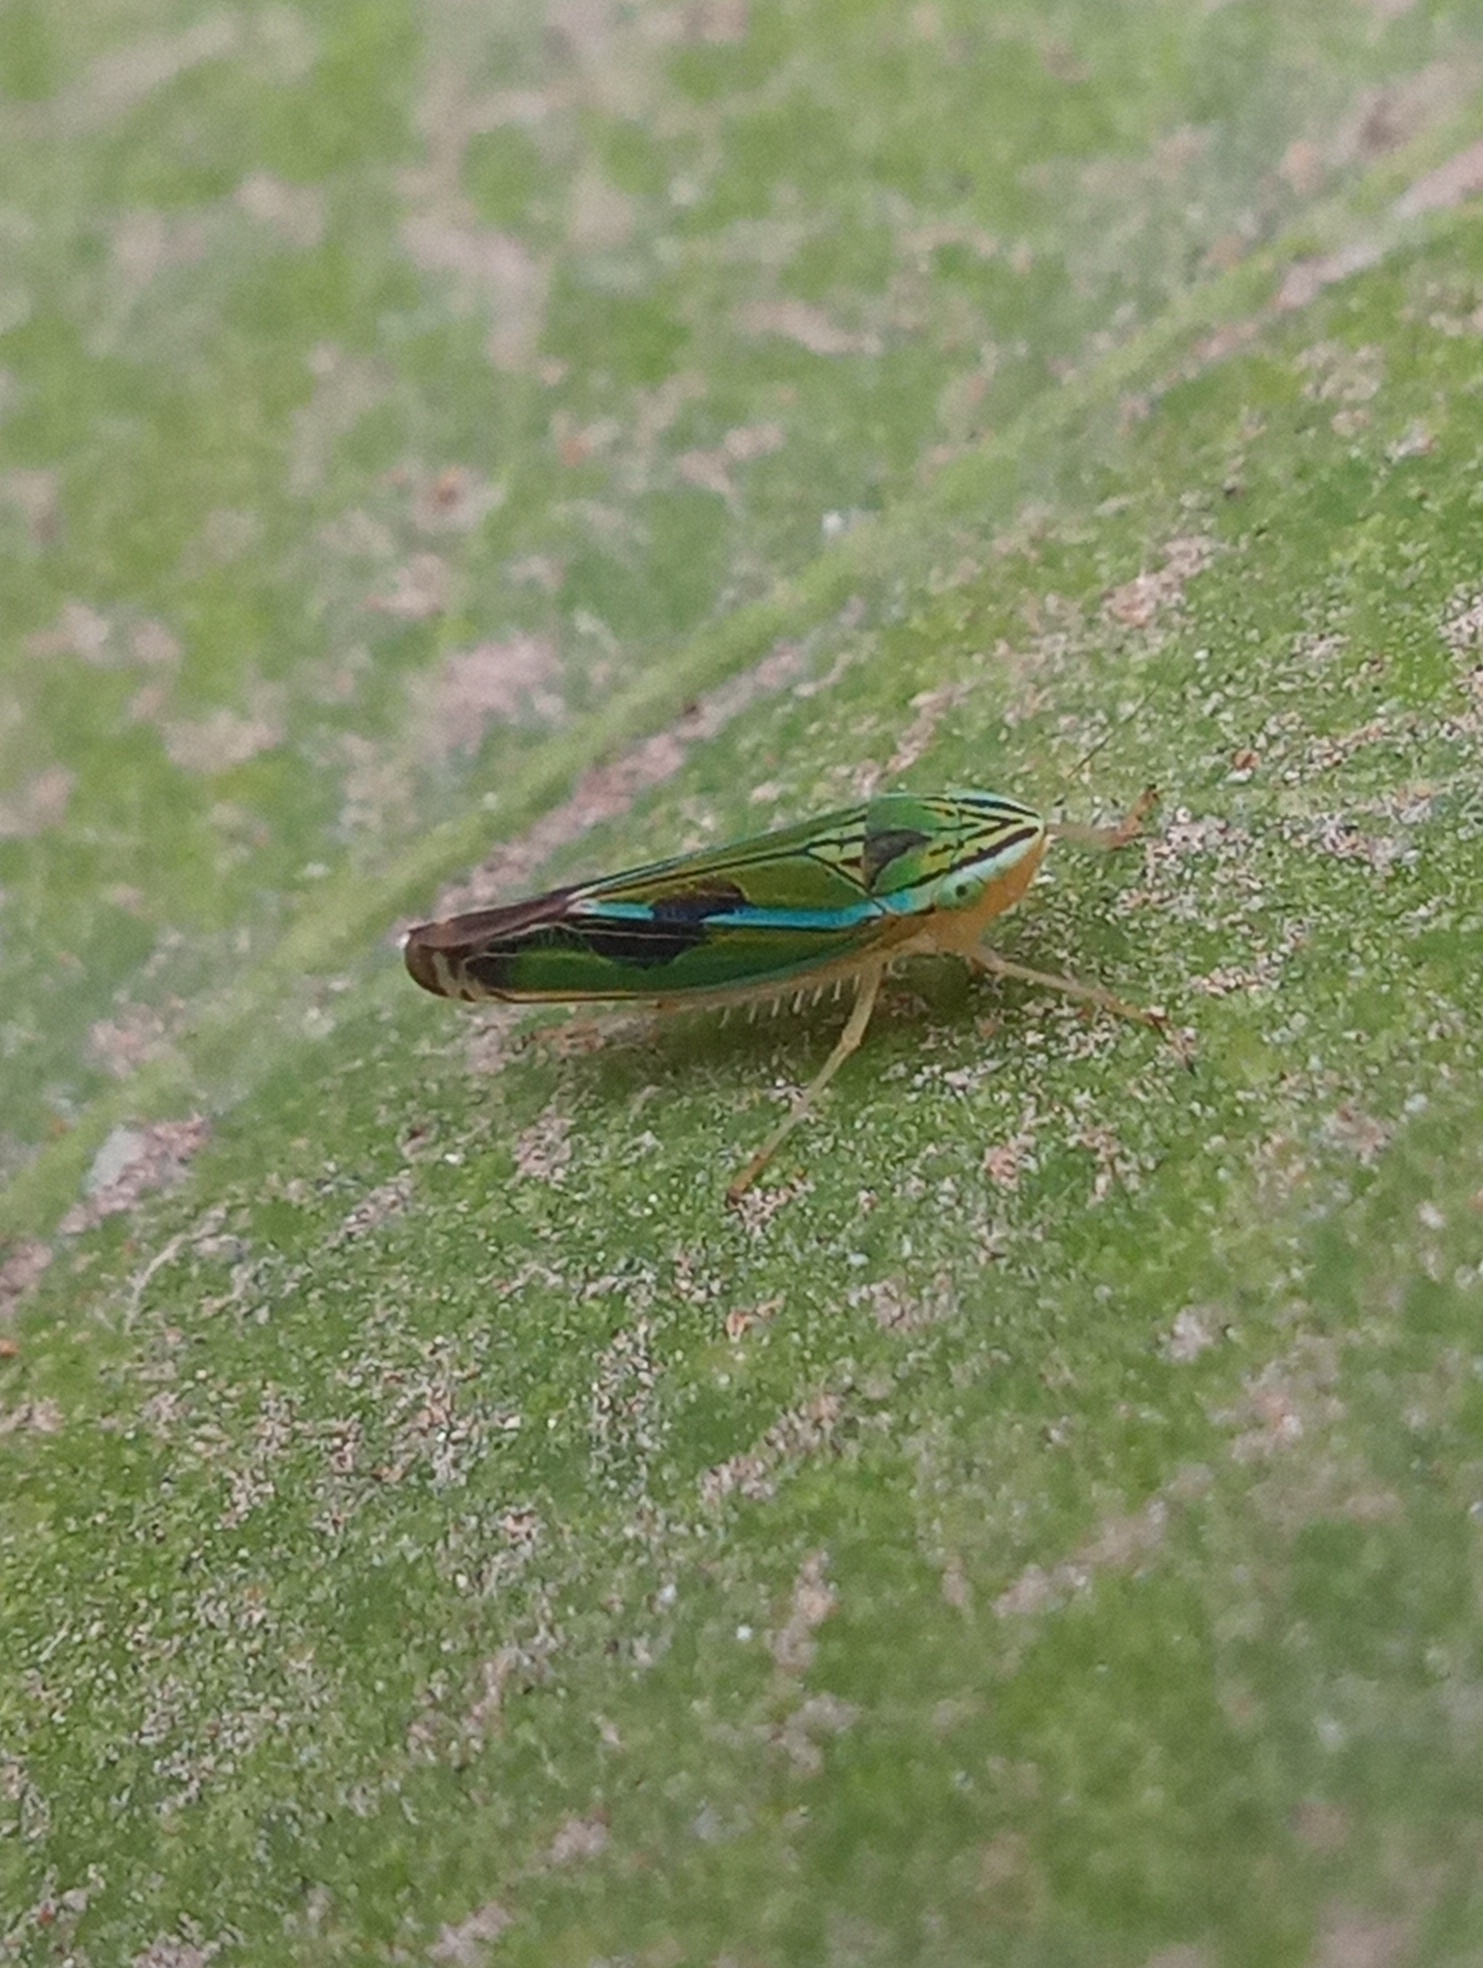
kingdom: Animalia
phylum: Arthropoda
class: Insecta
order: Hemiptera
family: Cicadellidae
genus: Sibovia
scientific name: Sibovia occatoria
